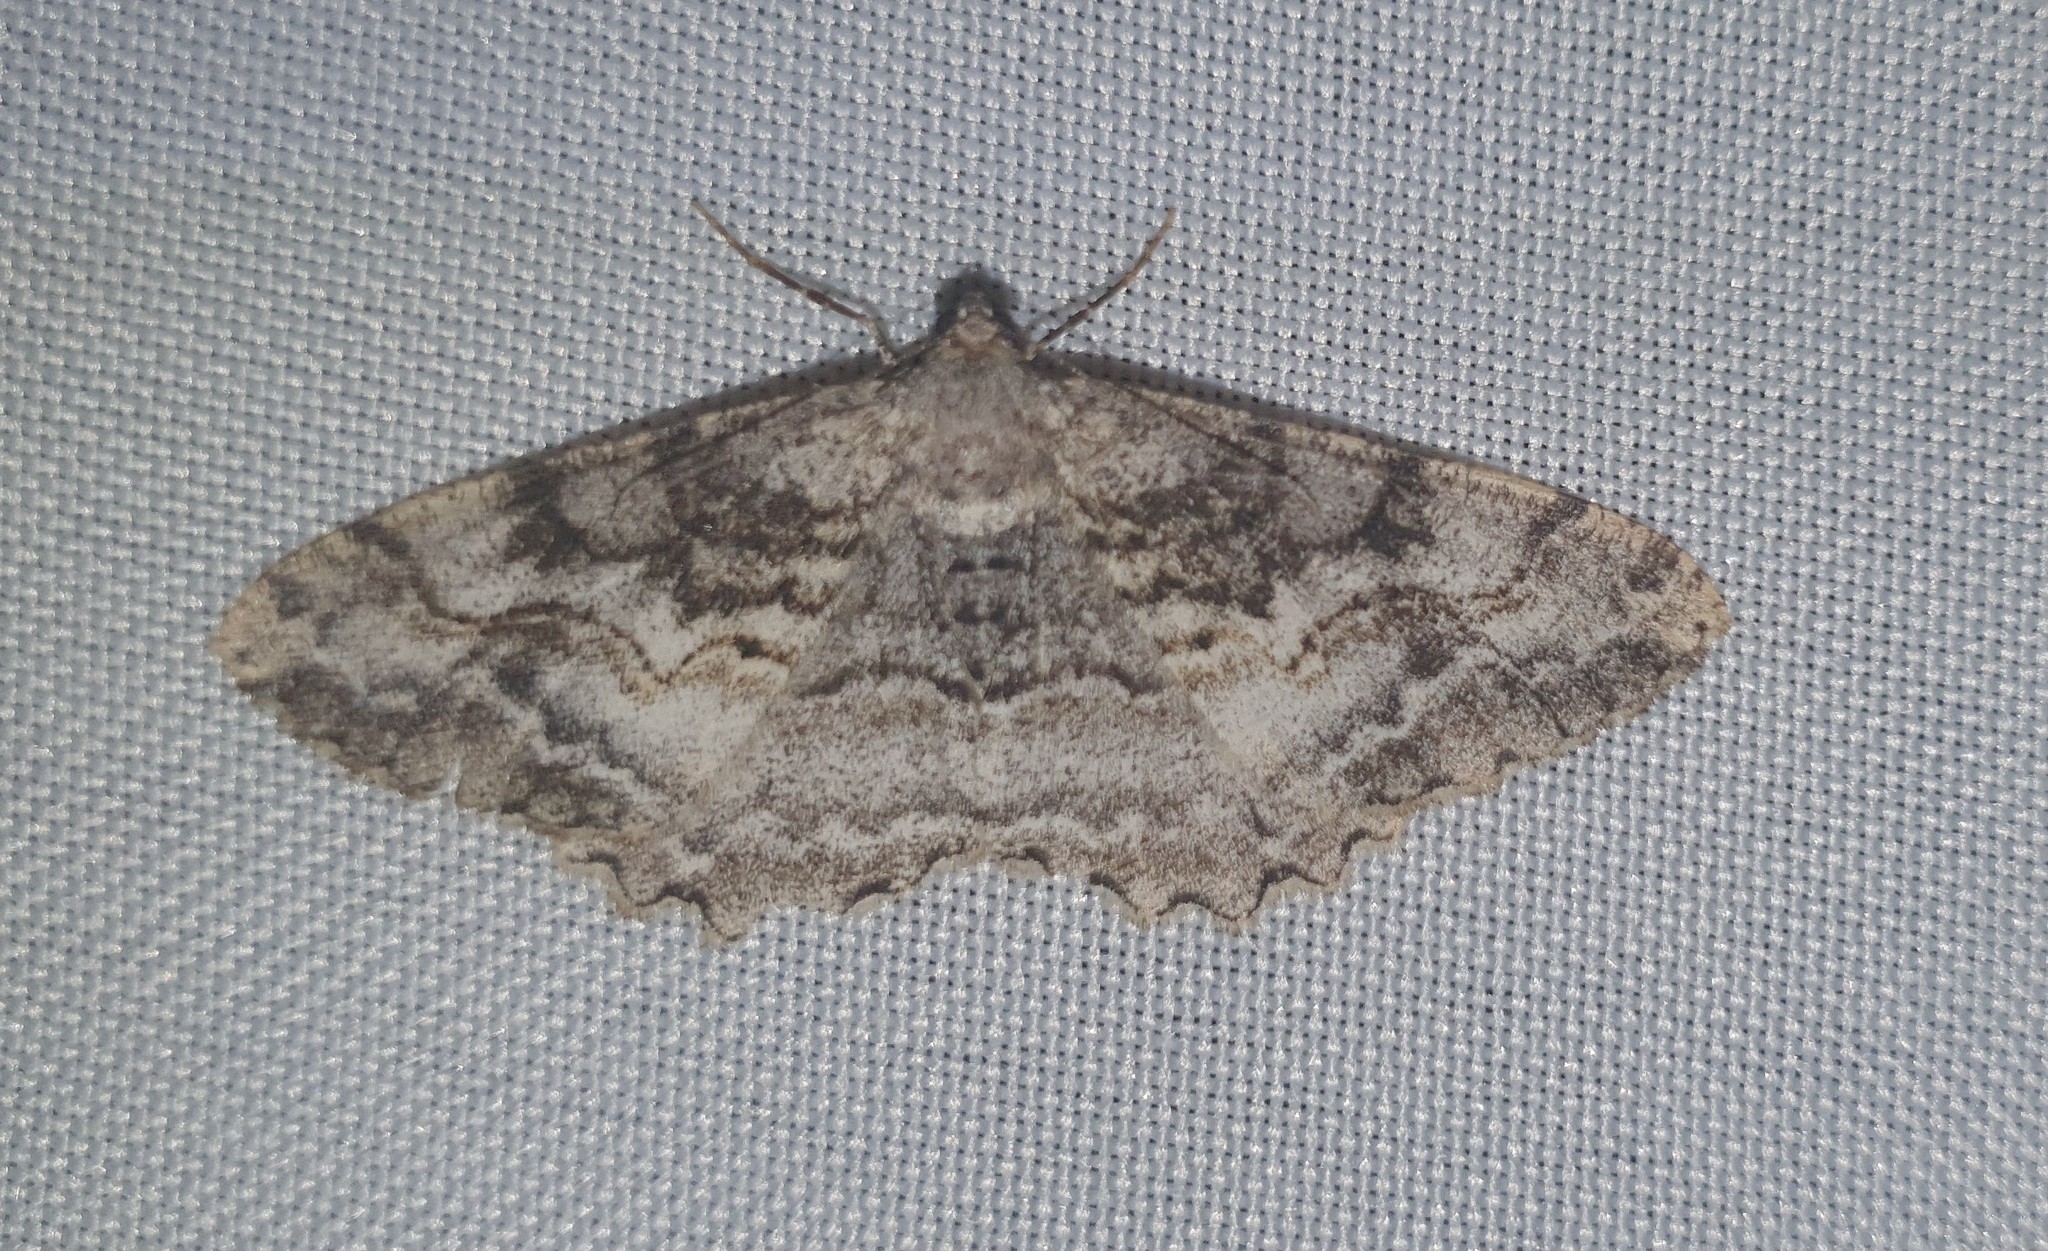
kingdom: Animalia
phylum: Arthropoda
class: Insecta
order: Lepidoptera
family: Geometridae
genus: Alcis
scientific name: Alcis repandata
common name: Mottled beauty
